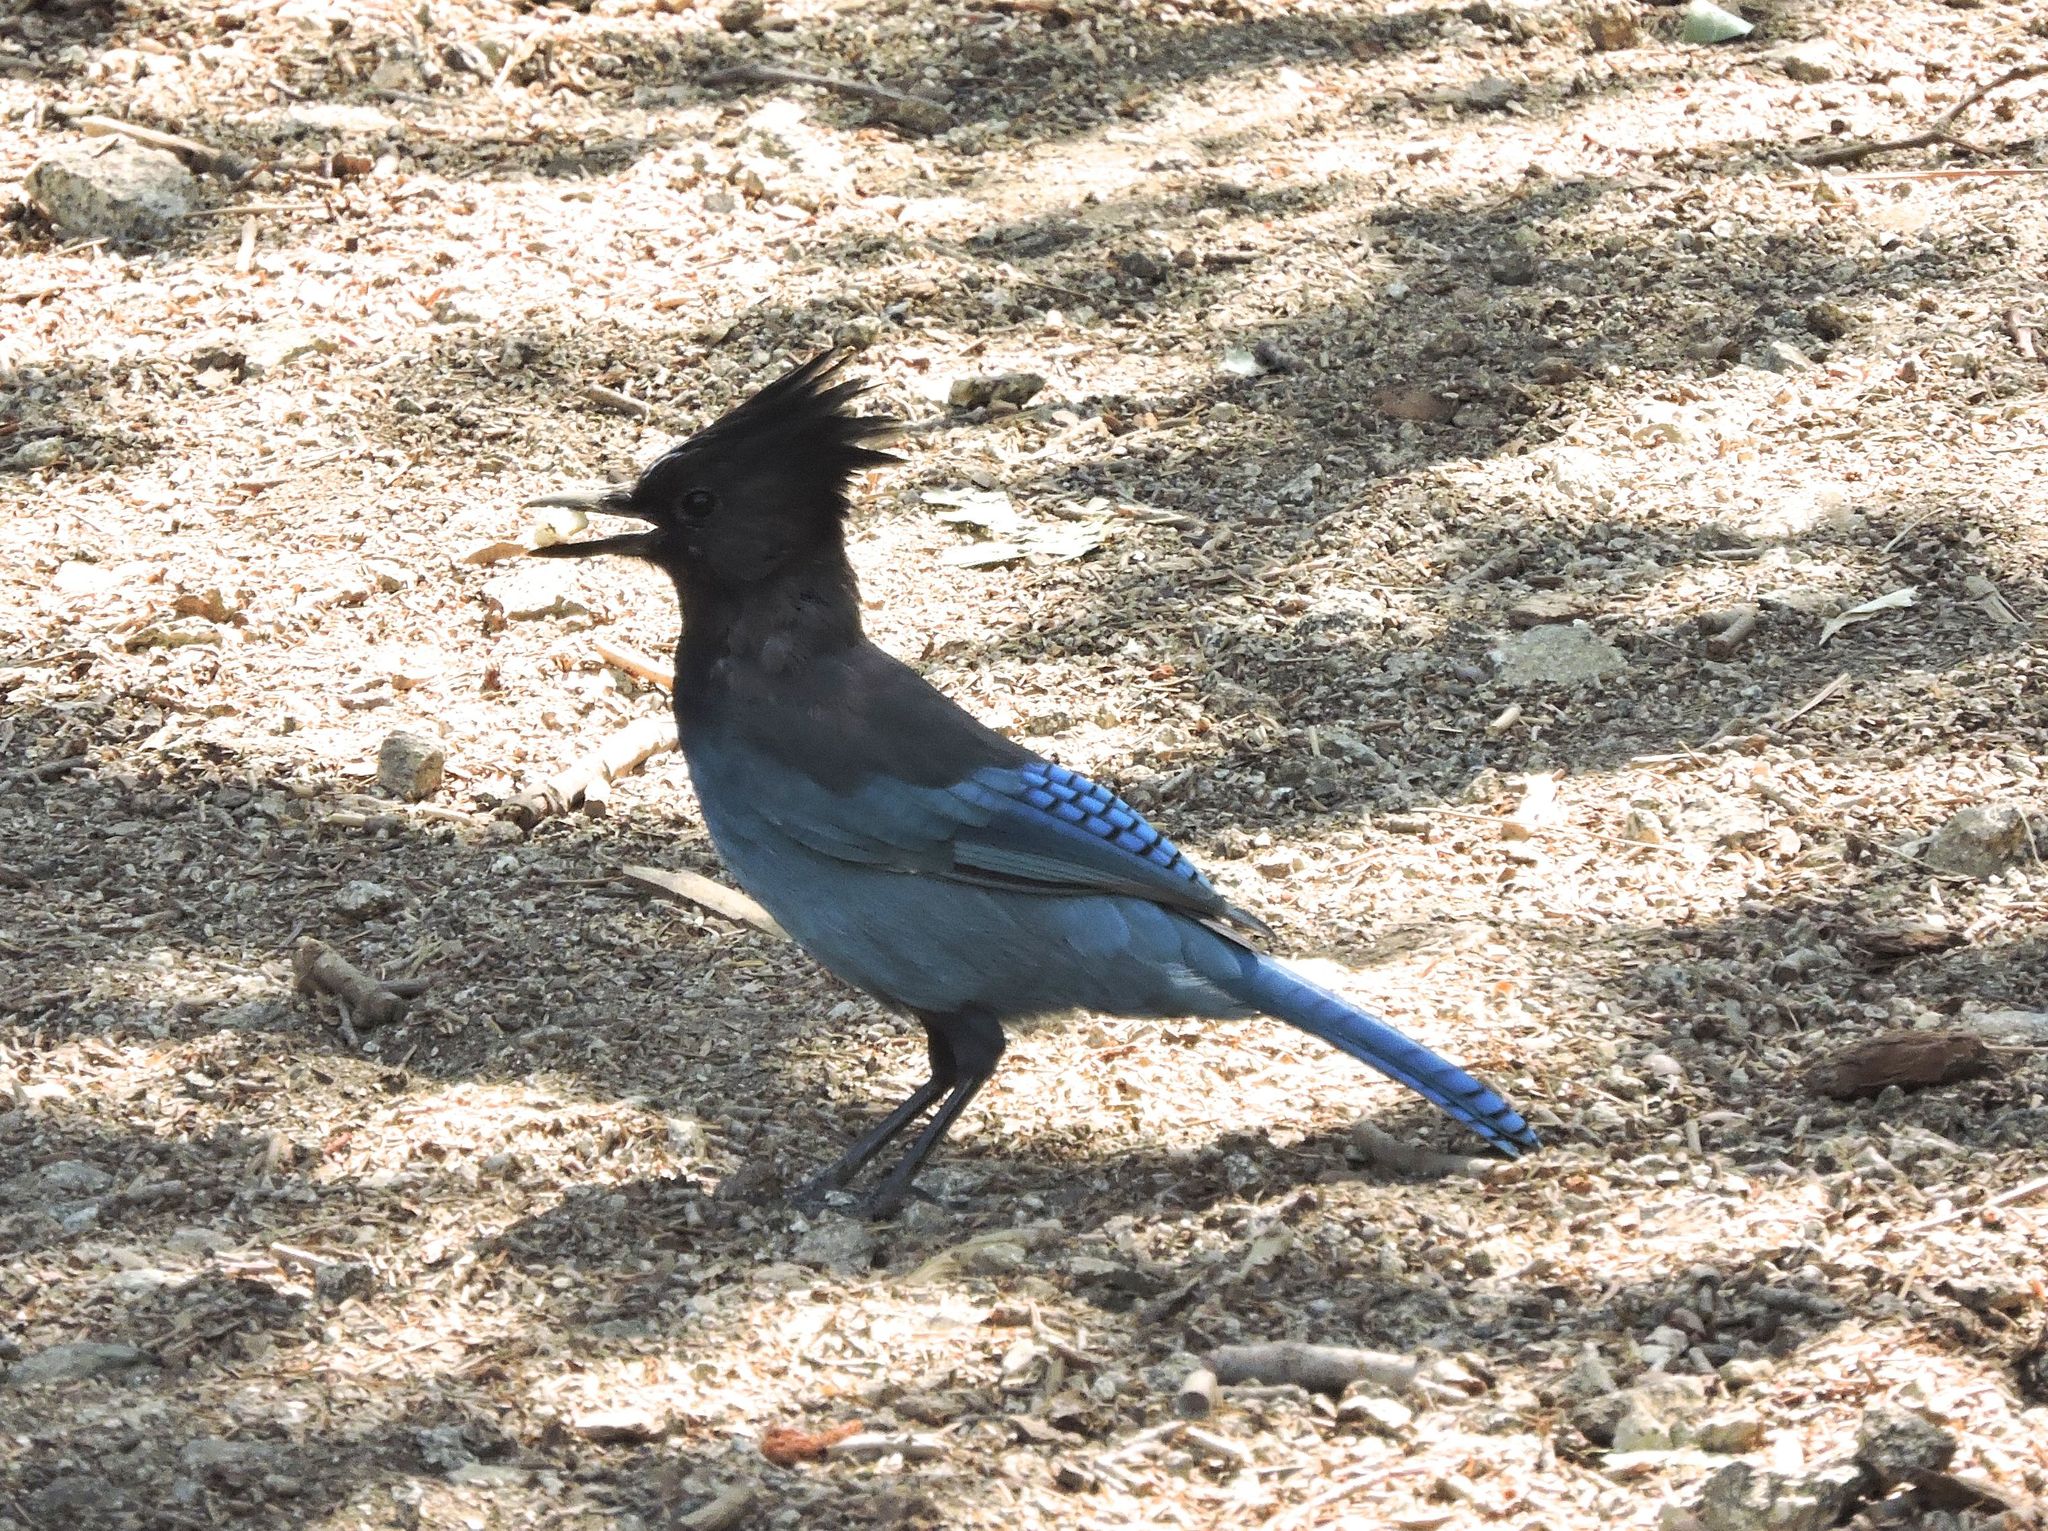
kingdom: Animalia
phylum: Chordata
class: Aves
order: Passeriformes
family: Corvidae
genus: Cyanocitta
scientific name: Cyanocitta stelleri
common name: Steller's jay
